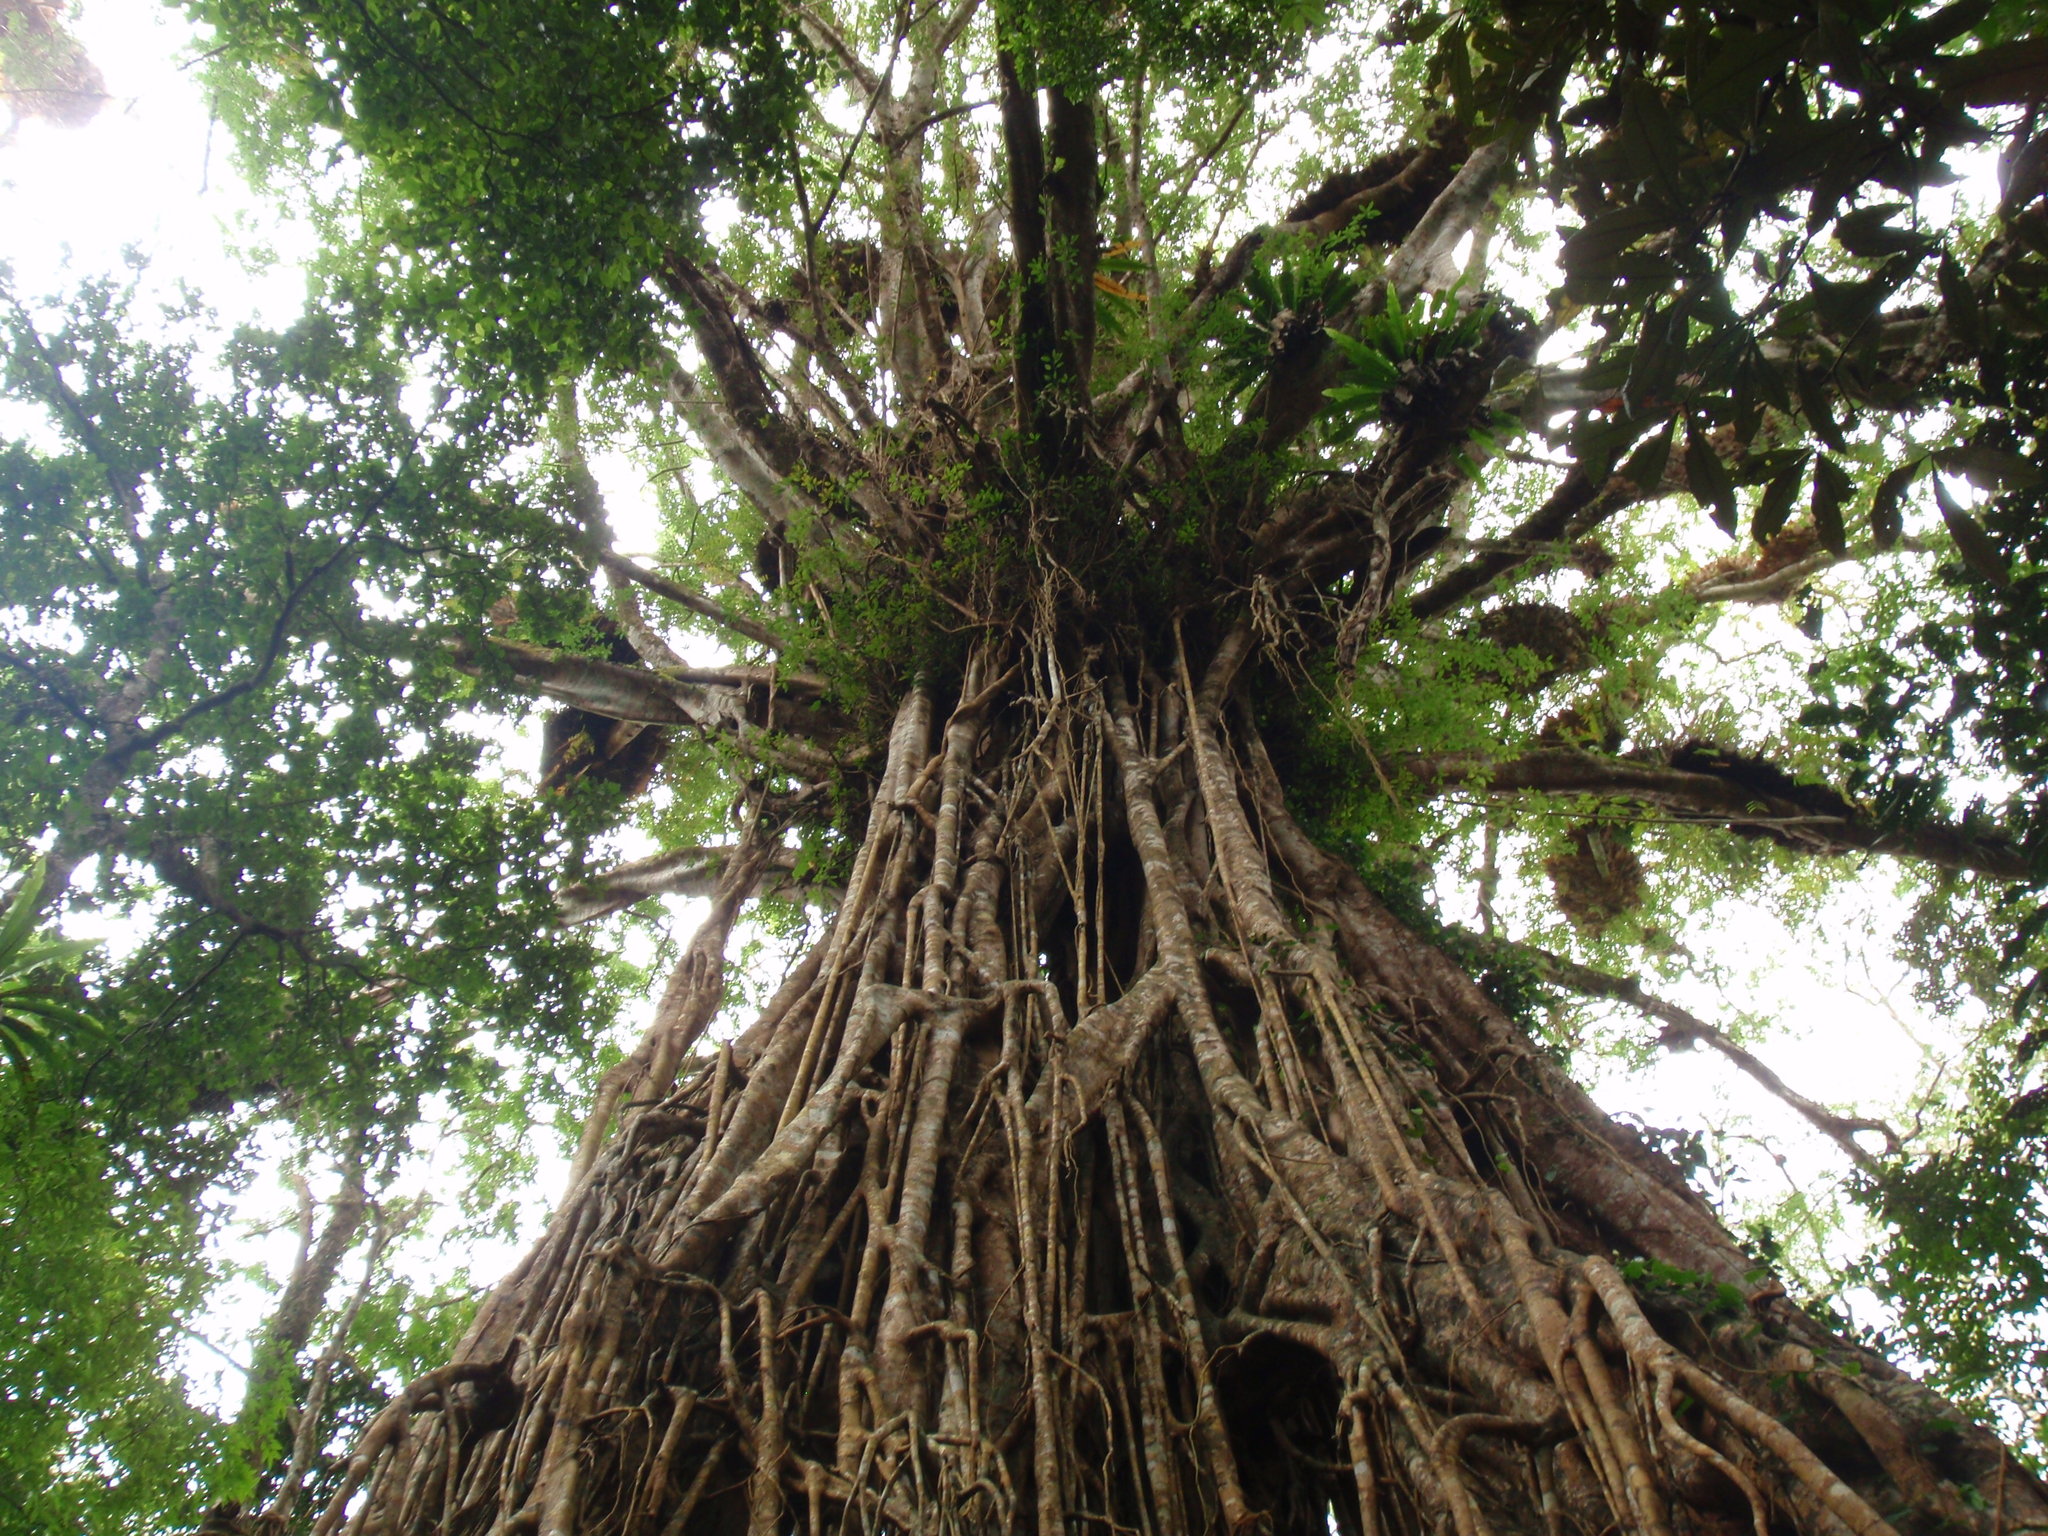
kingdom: Plantae
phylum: Tracheophyta
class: Magnoliopsida
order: Rosales
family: Moraceae
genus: Ficus
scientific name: Ficus virens
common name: Spotted fig
